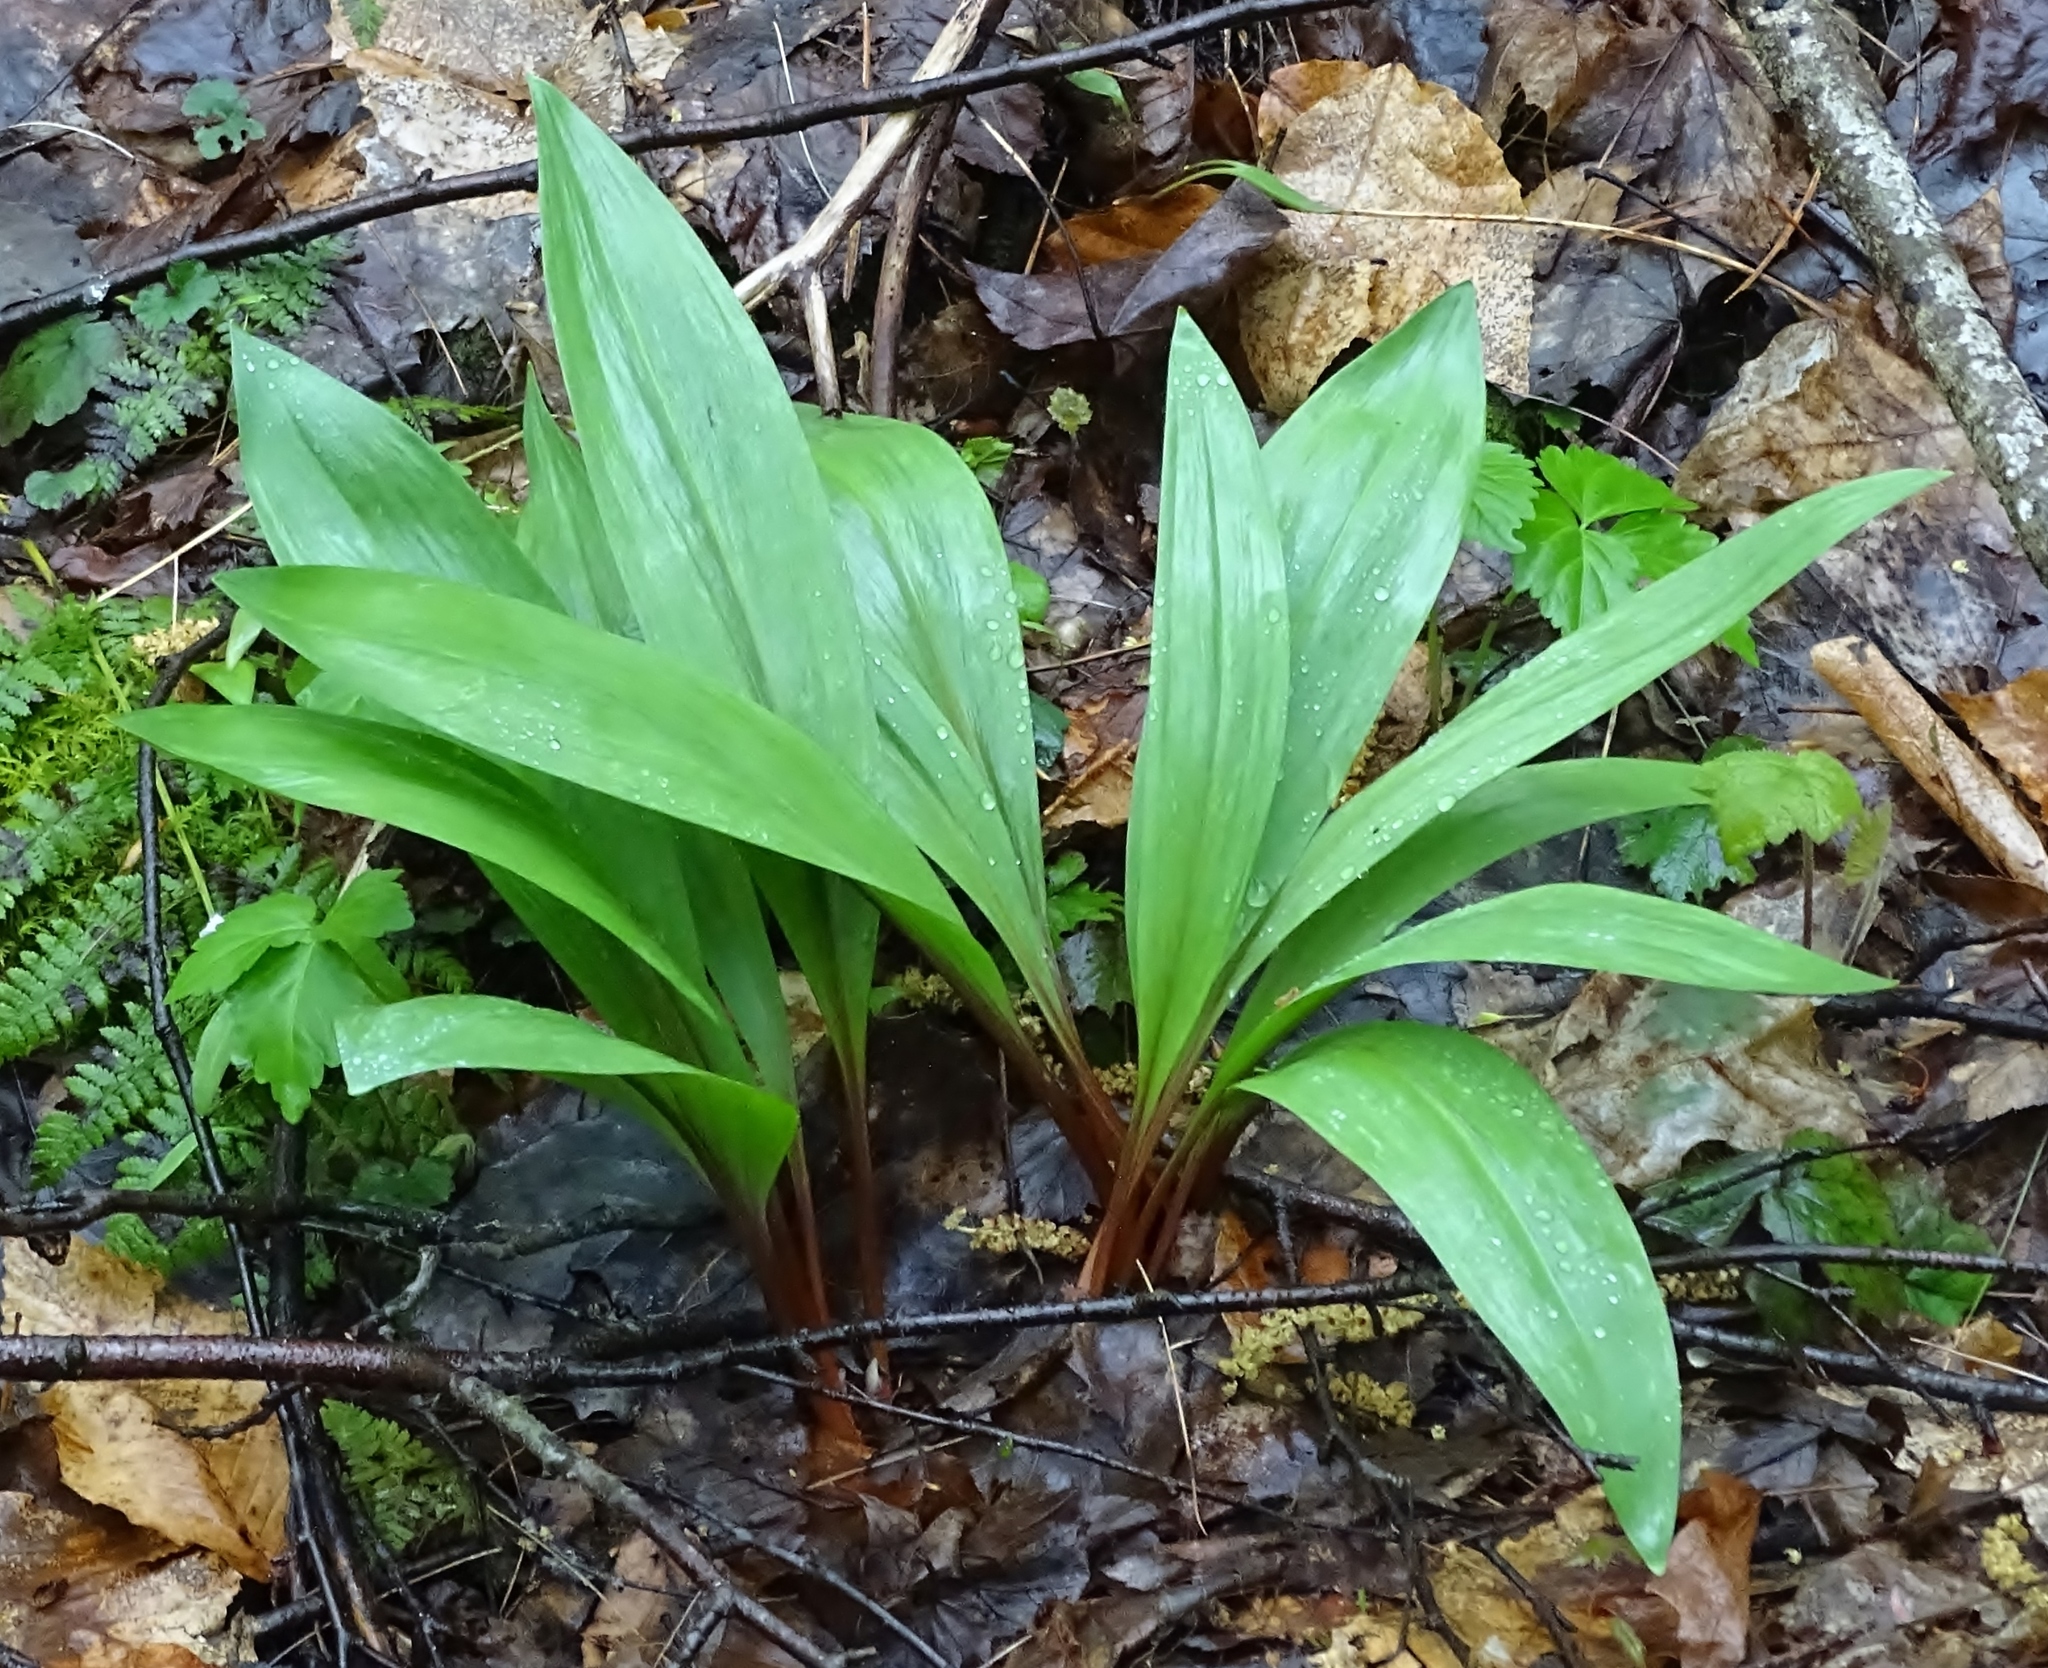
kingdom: Plantae
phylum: Tracheophyta
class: Liliopsida
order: Asparagales
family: Amaryllidaceae
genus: Allium
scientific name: Allium tricoccum
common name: Ramp
